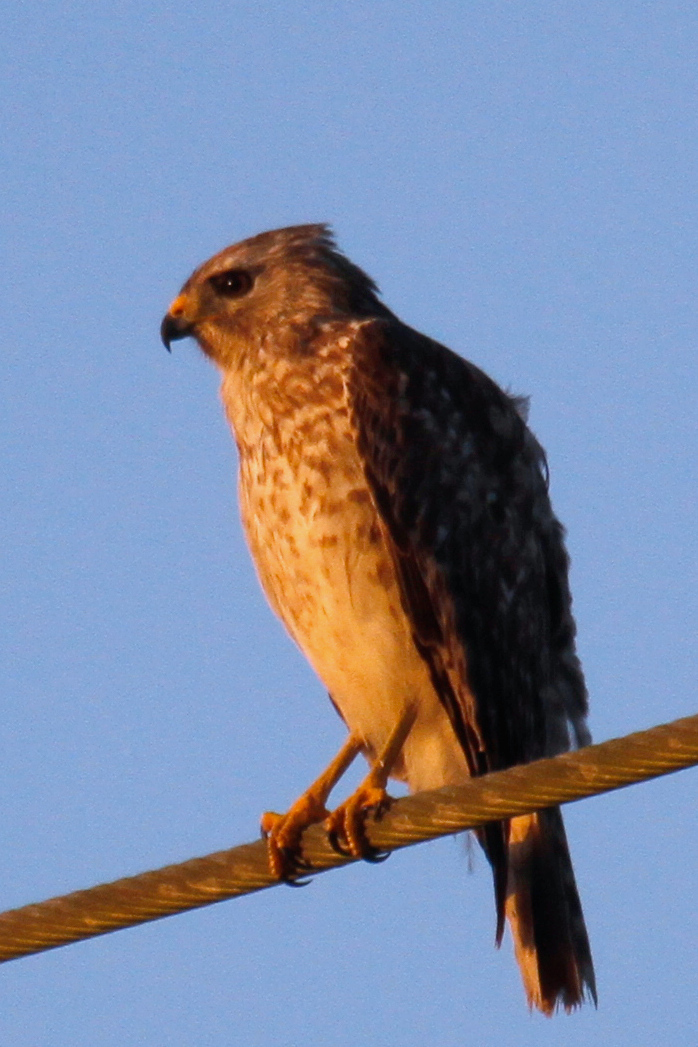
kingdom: Animalia
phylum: Chordata
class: Aves
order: Accipitriformes
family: Accipitridae
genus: Buteo
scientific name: Buteo lineatus
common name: Red-shouldered hawk
